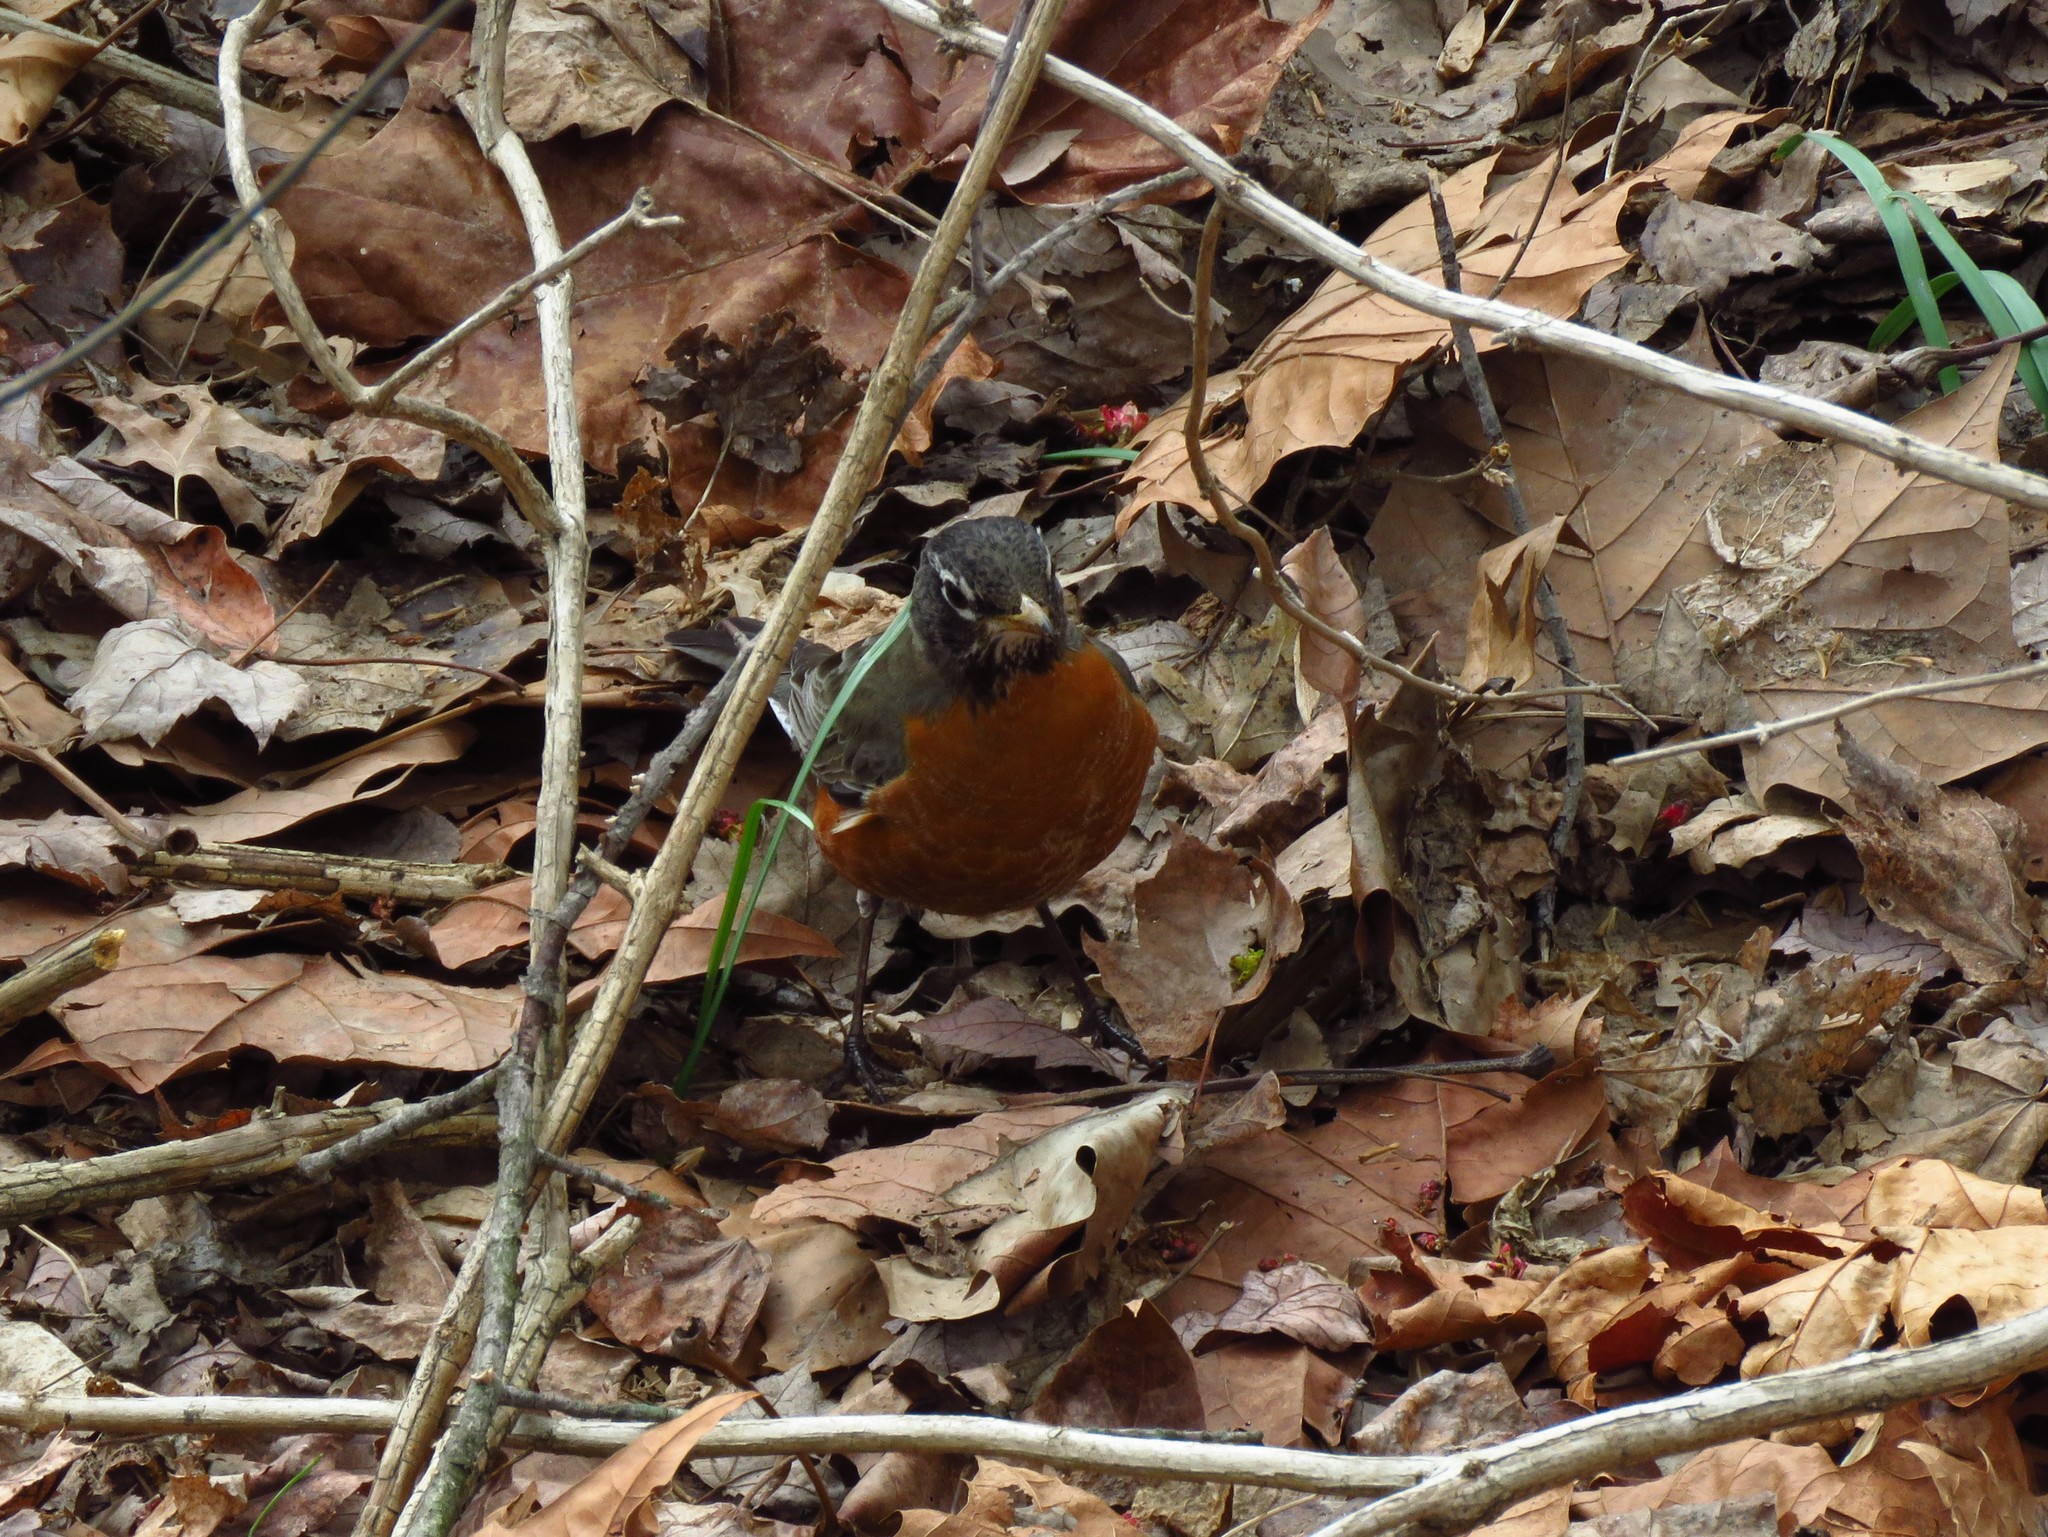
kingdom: Animalia
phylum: Chordata
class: Aves
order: Passeriformes
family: Turdidae
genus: Turdus
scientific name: Turdus migratorius
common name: American robin
